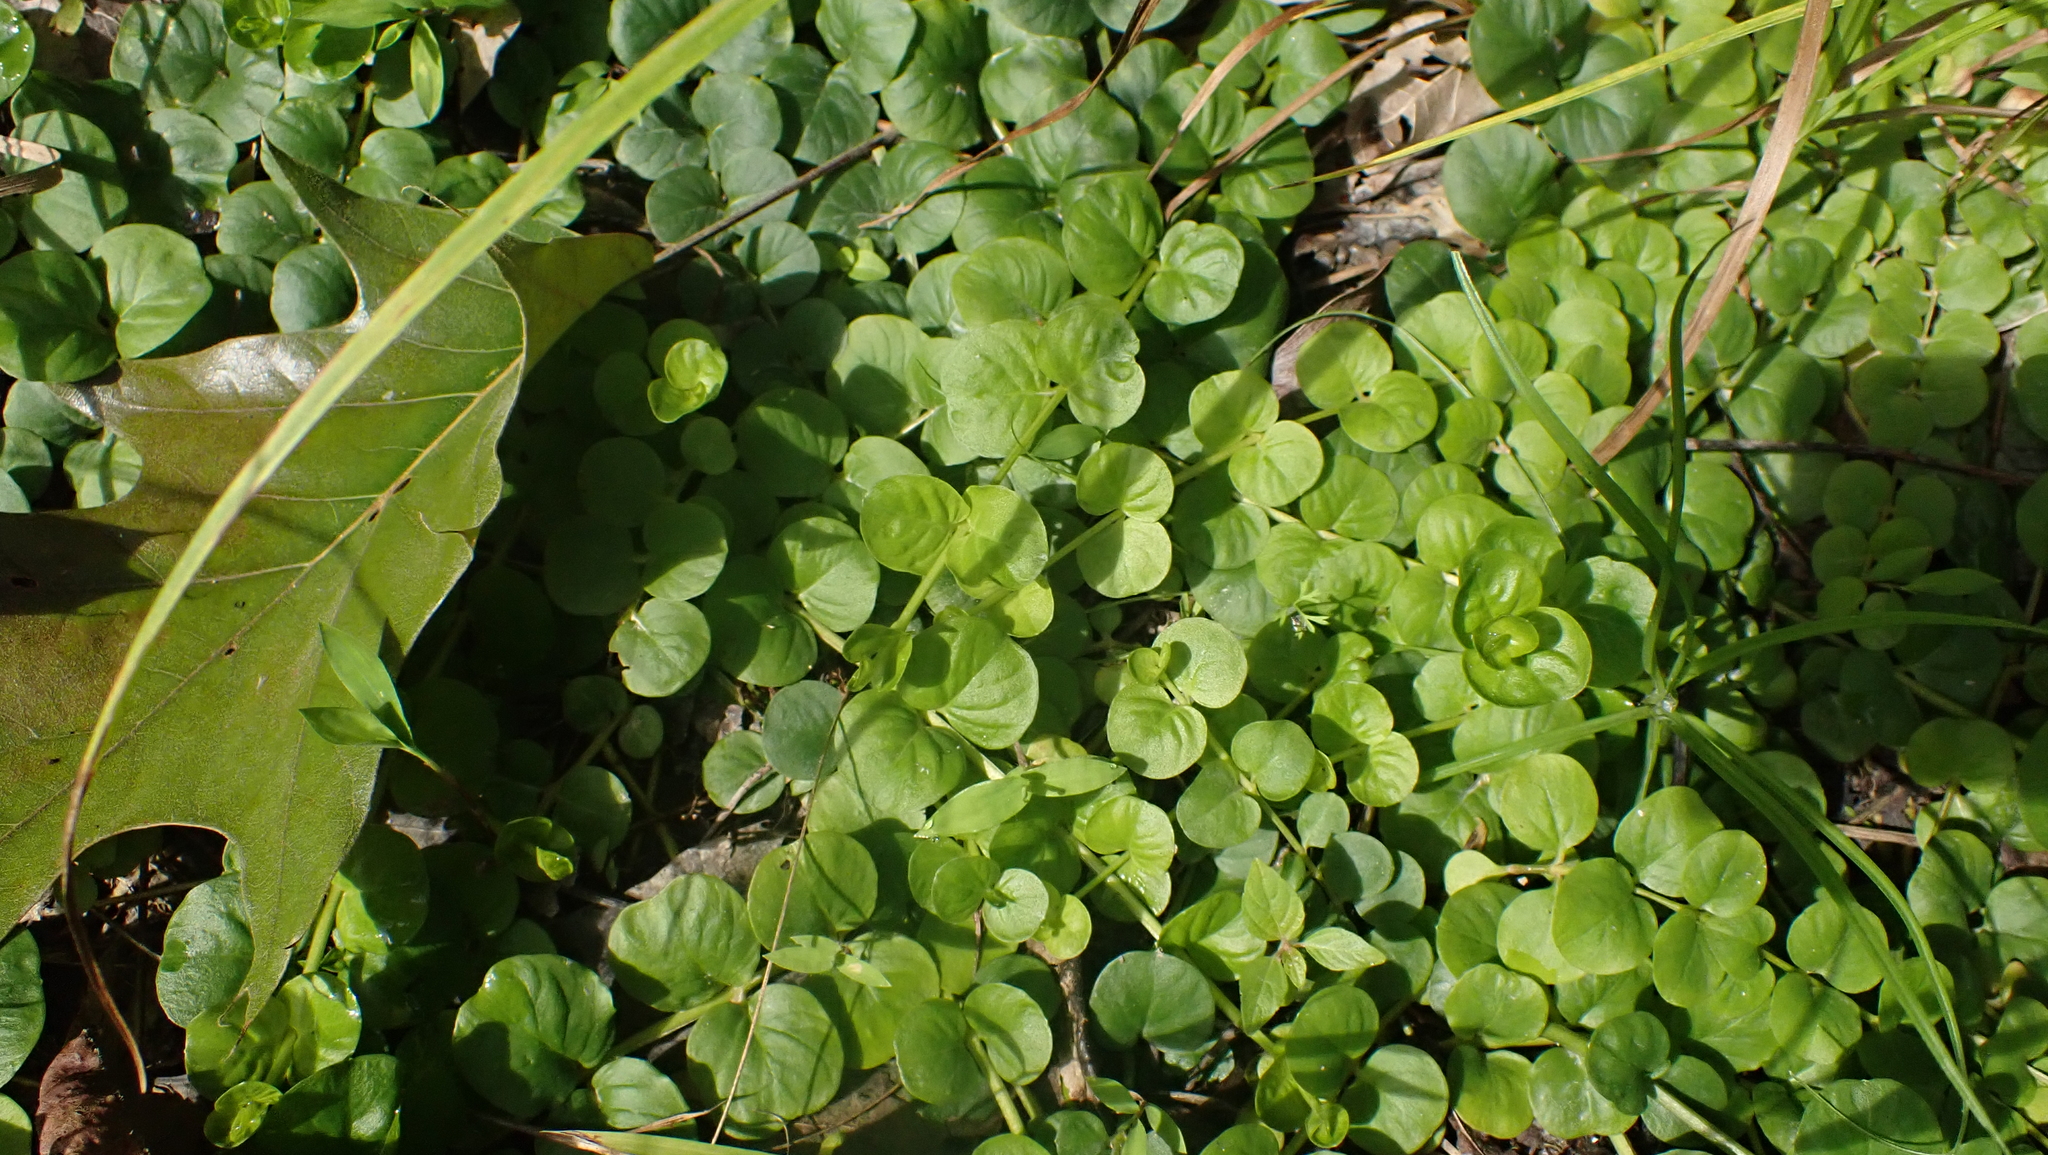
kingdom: Plantae
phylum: Tracheophyta
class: Magnoliopsida
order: Ericales
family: Primulaceae
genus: Lysimachia
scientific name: Lysimachia nummularia
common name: Moneywort
